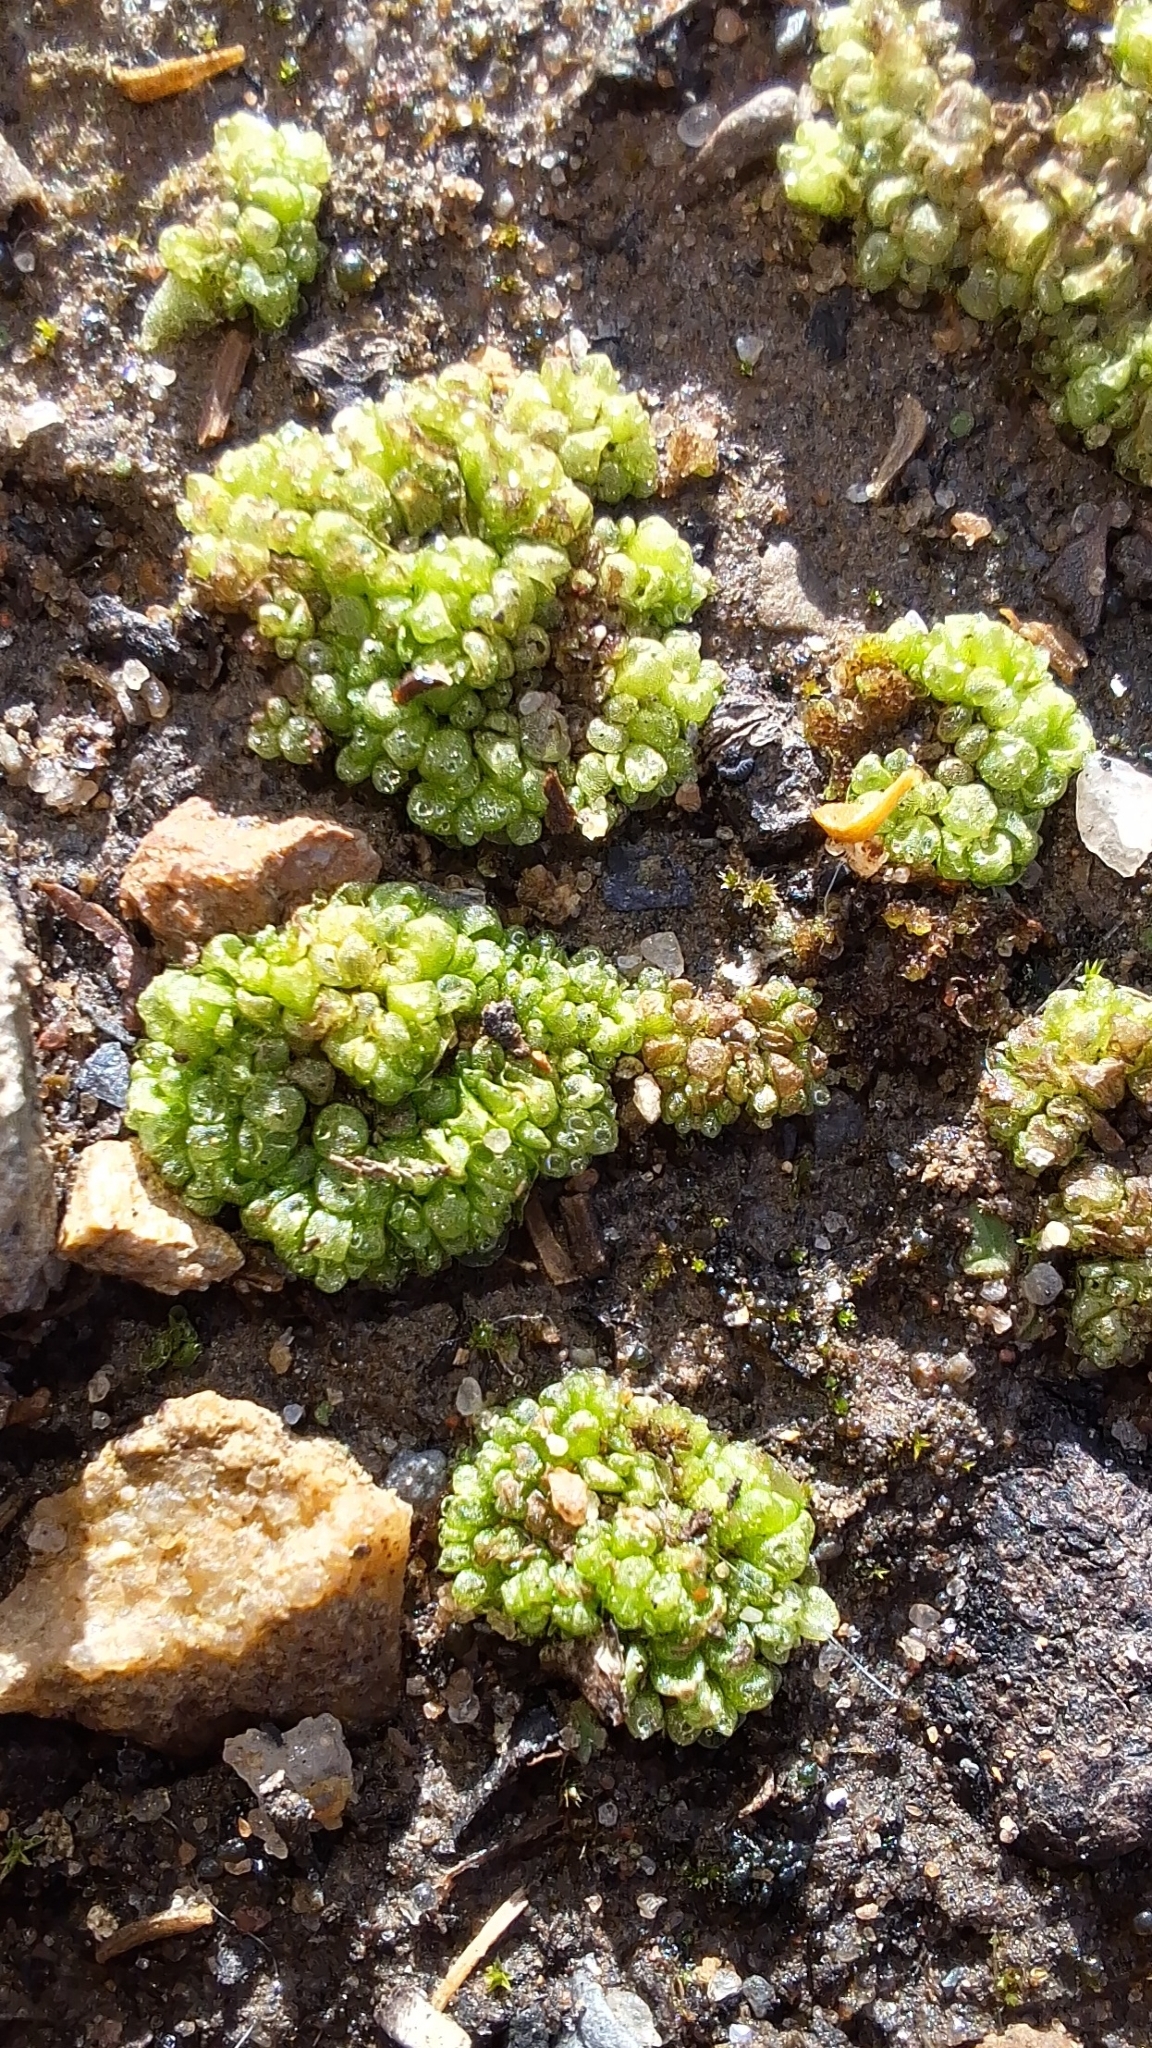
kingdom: Plantae
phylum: Marchantiophyta
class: Marchantiopsida
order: Sphaerocarpales
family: Sphaerocarpaceae
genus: Sphaerocarpos
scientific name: Sphaerocarpos texanus
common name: Texas balloonwort
